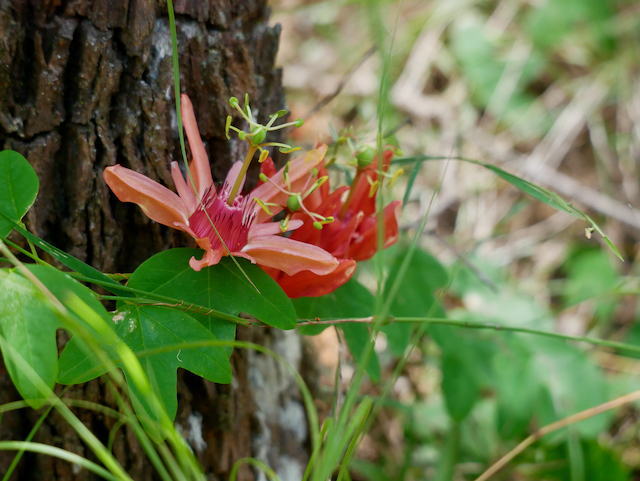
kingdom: Plantae
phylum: Tracheophyta
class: Magnoliopsida
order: Malpighiales
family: Passifloraceae
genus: Passiflora
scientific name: Passiflora aurantia
